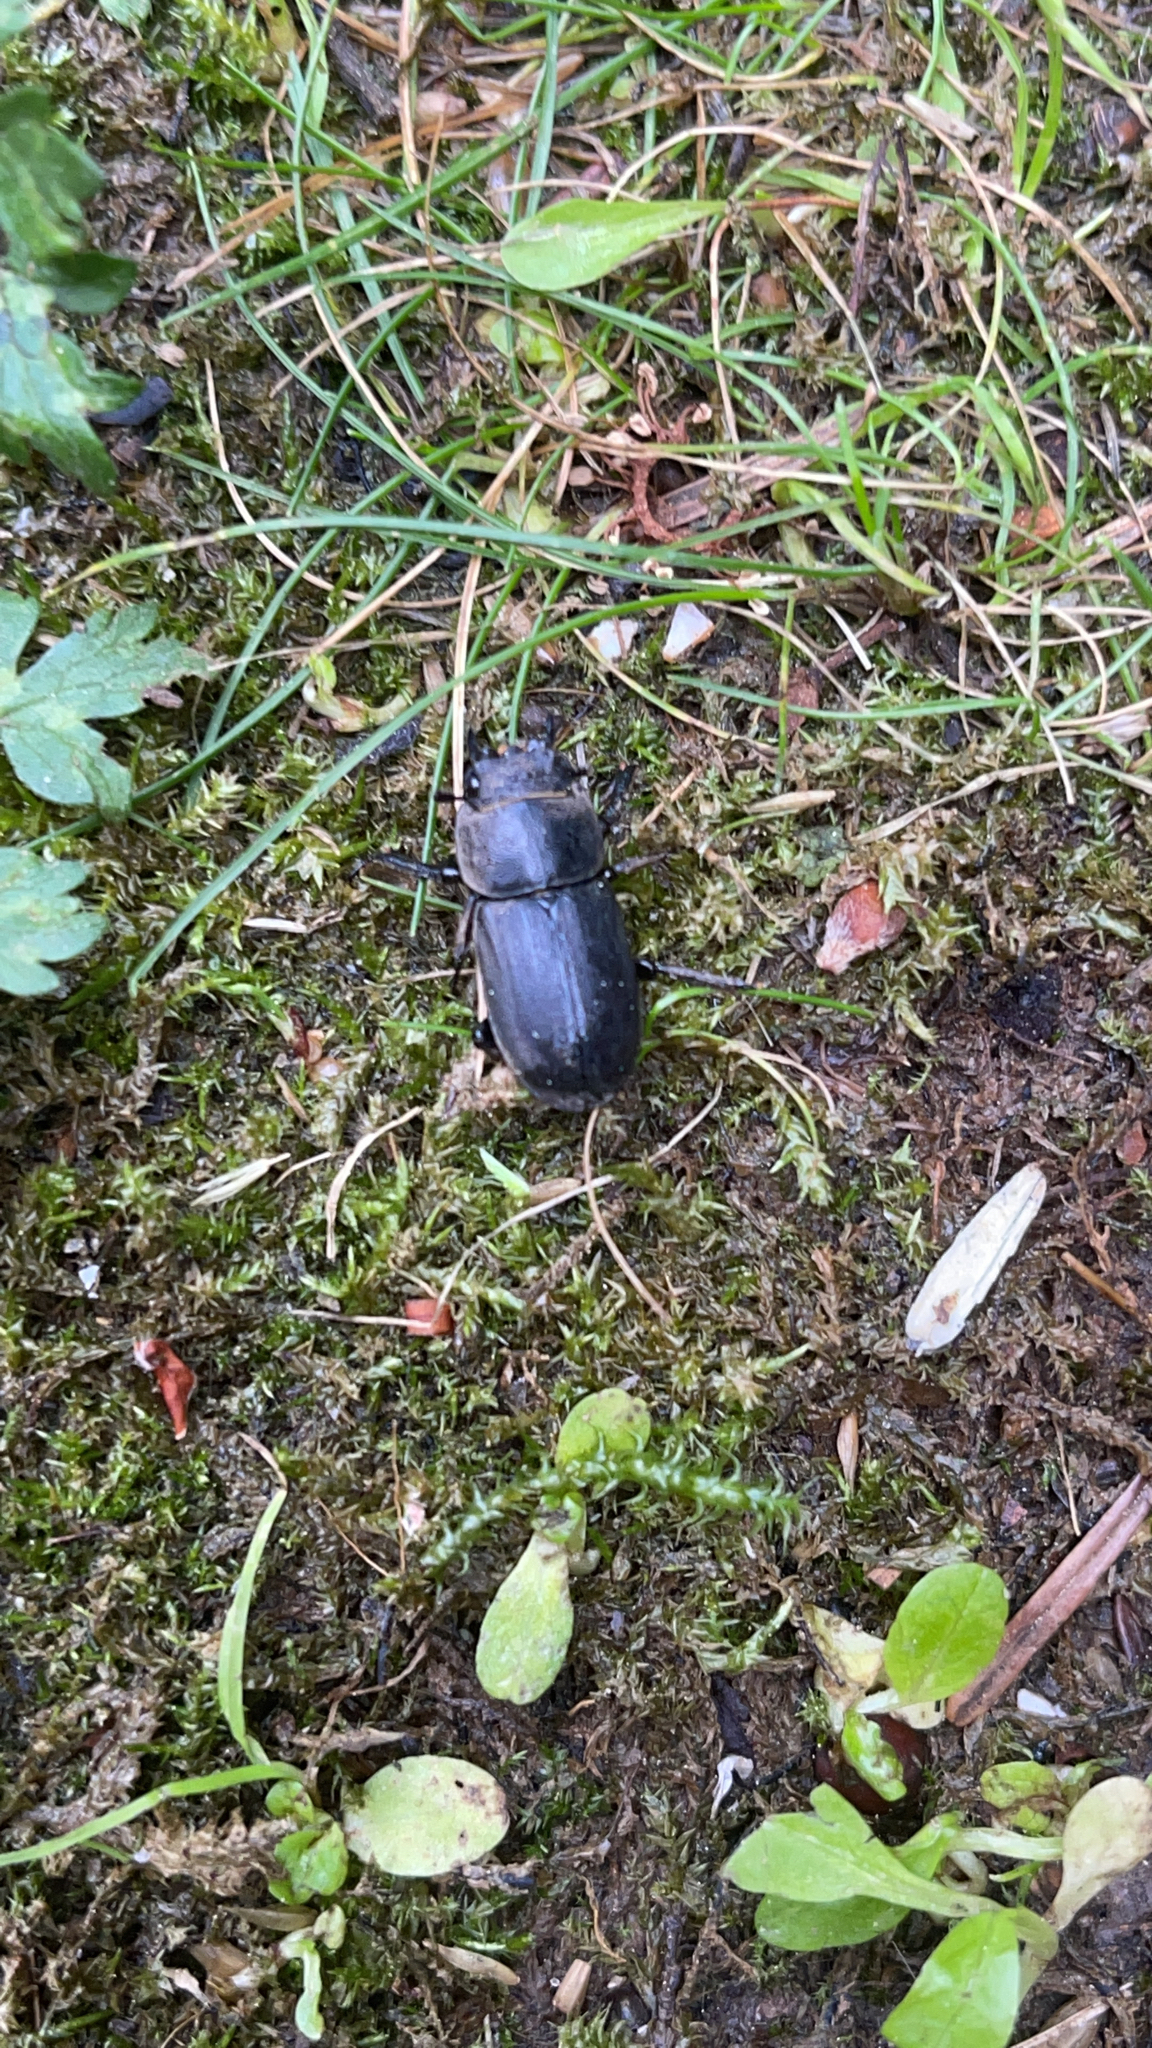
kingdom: Animalia
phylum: Arthropoda
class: Insecta
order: Coleoptera
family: Lucanidae
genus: Dorcus
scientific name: Dorcus parallelipipedus
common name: Lesser stag beetle
